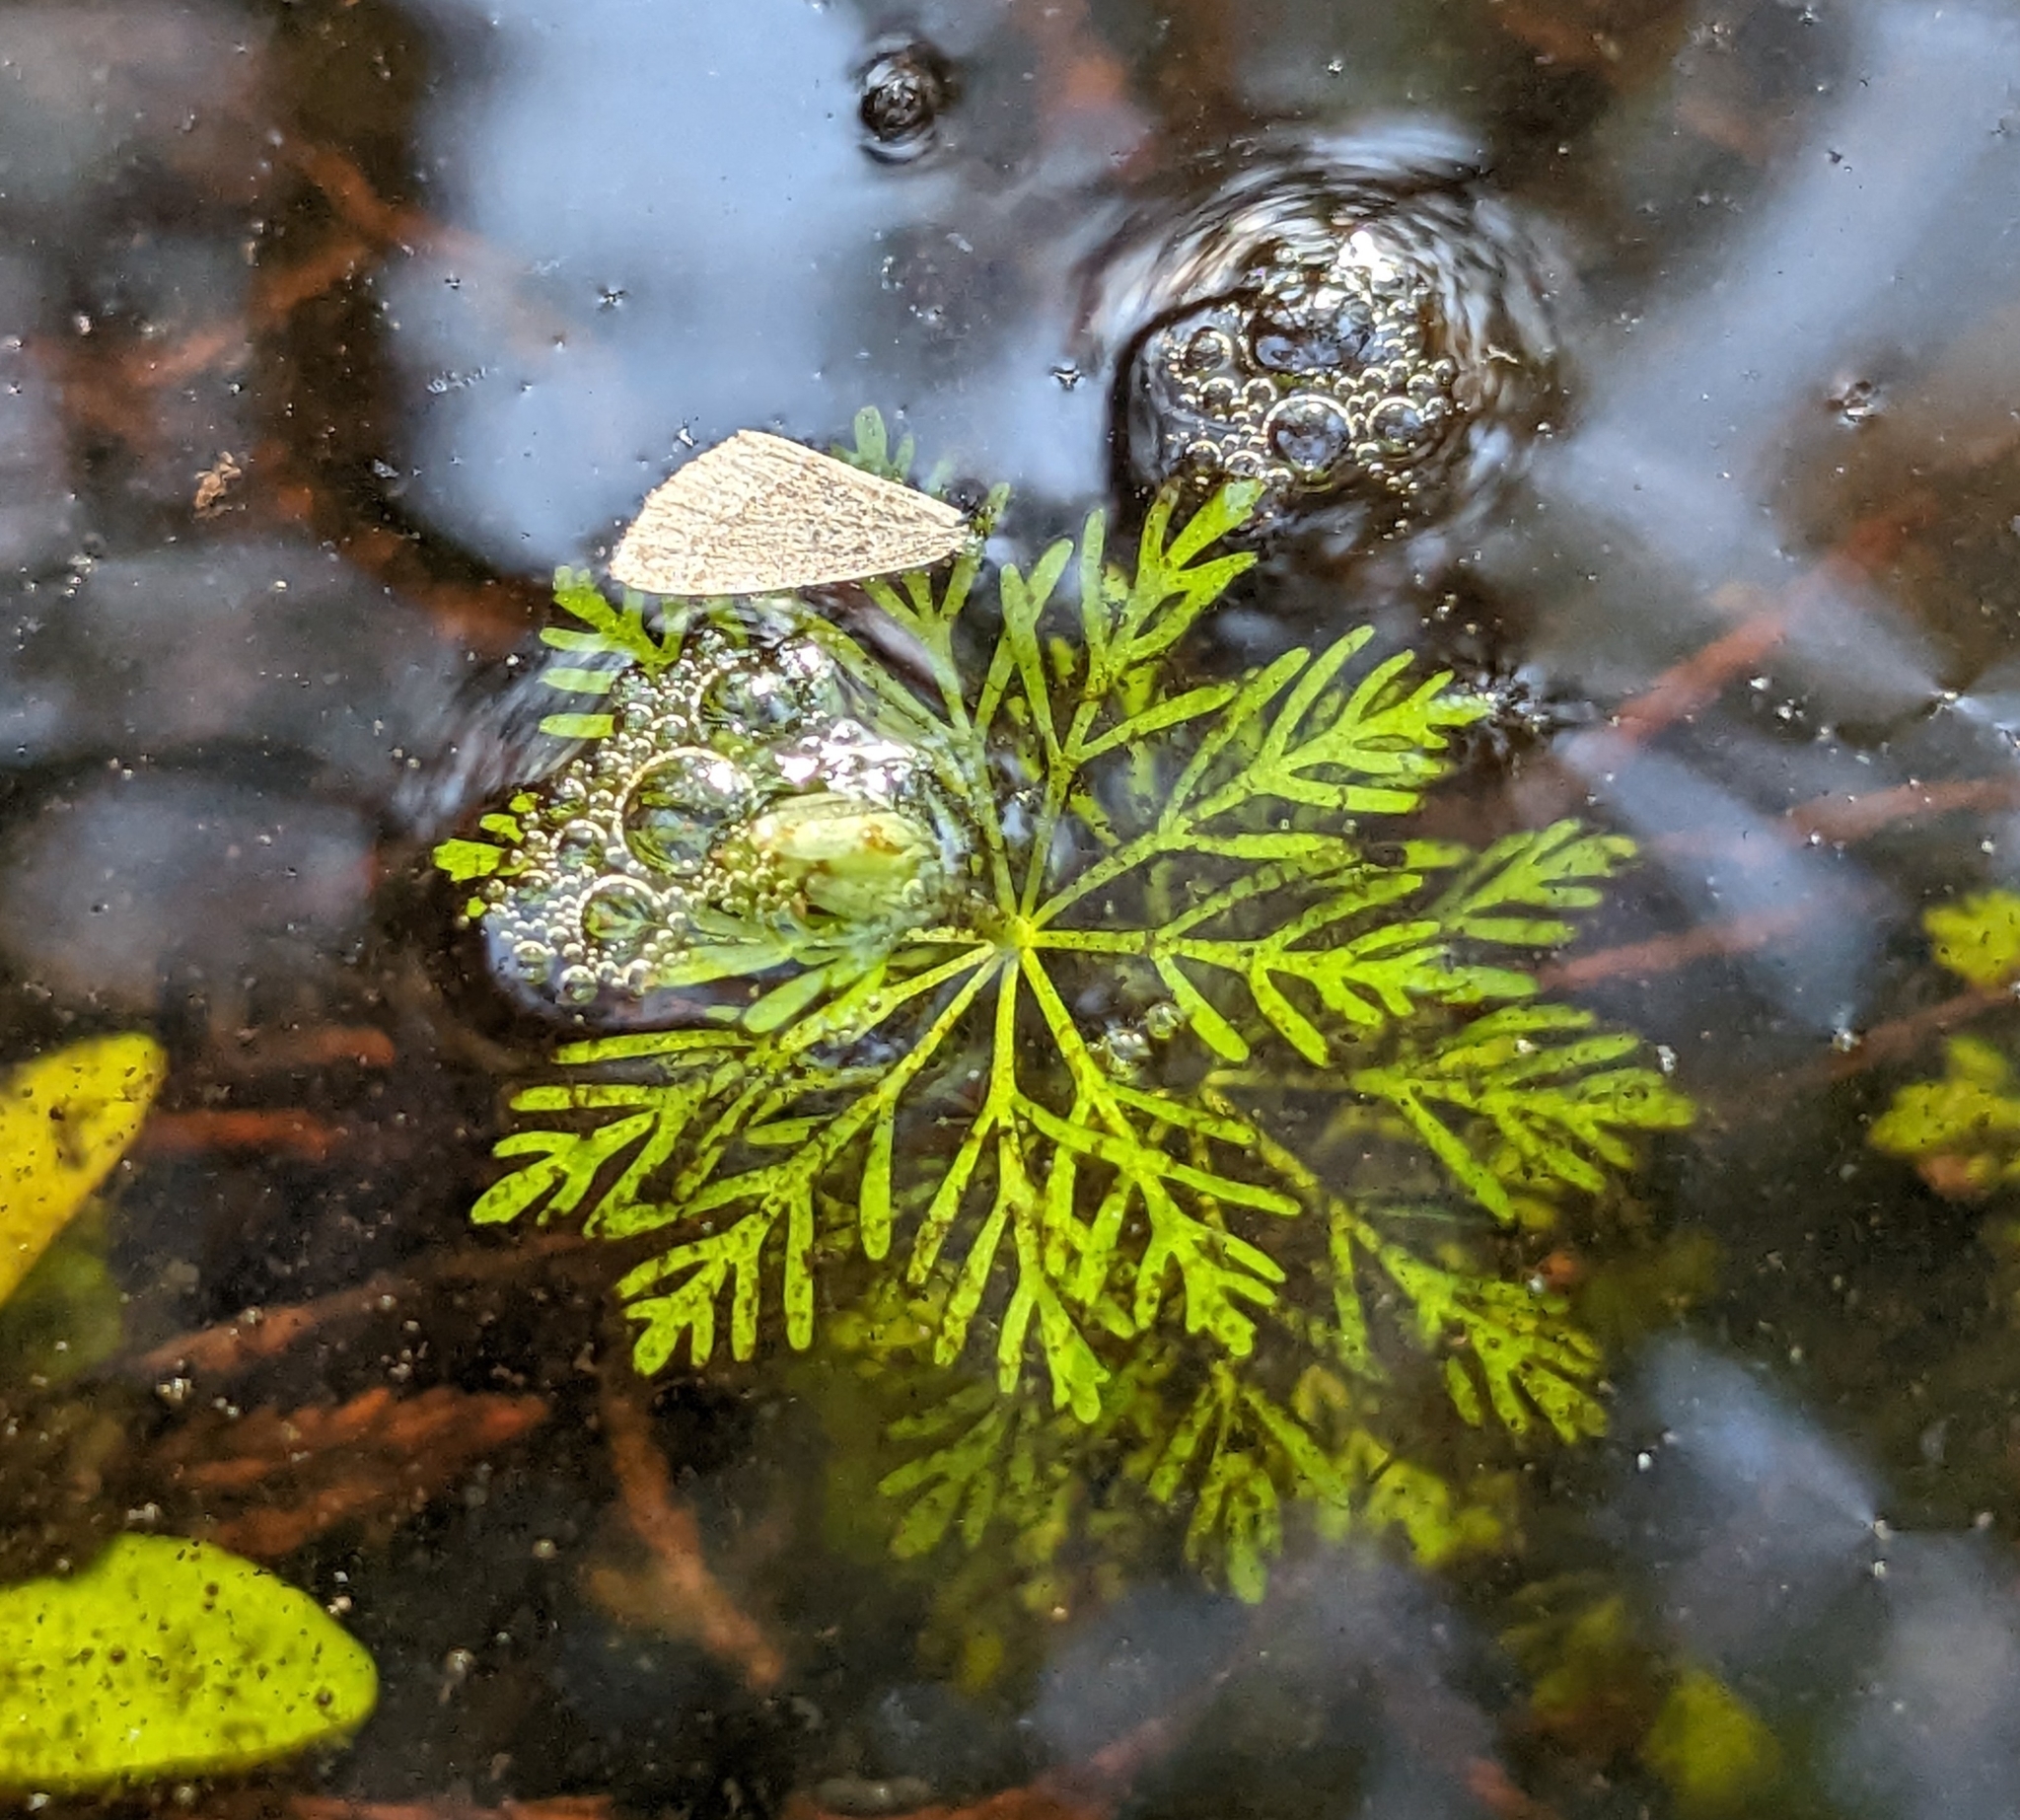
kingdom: Plantae
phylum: Tracheophyta
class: Magnoliopsida
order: Lamiales
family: Plantaginaceae
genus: Limnophila
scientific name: Limnophila sessiliflora
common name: Asian marshweed
